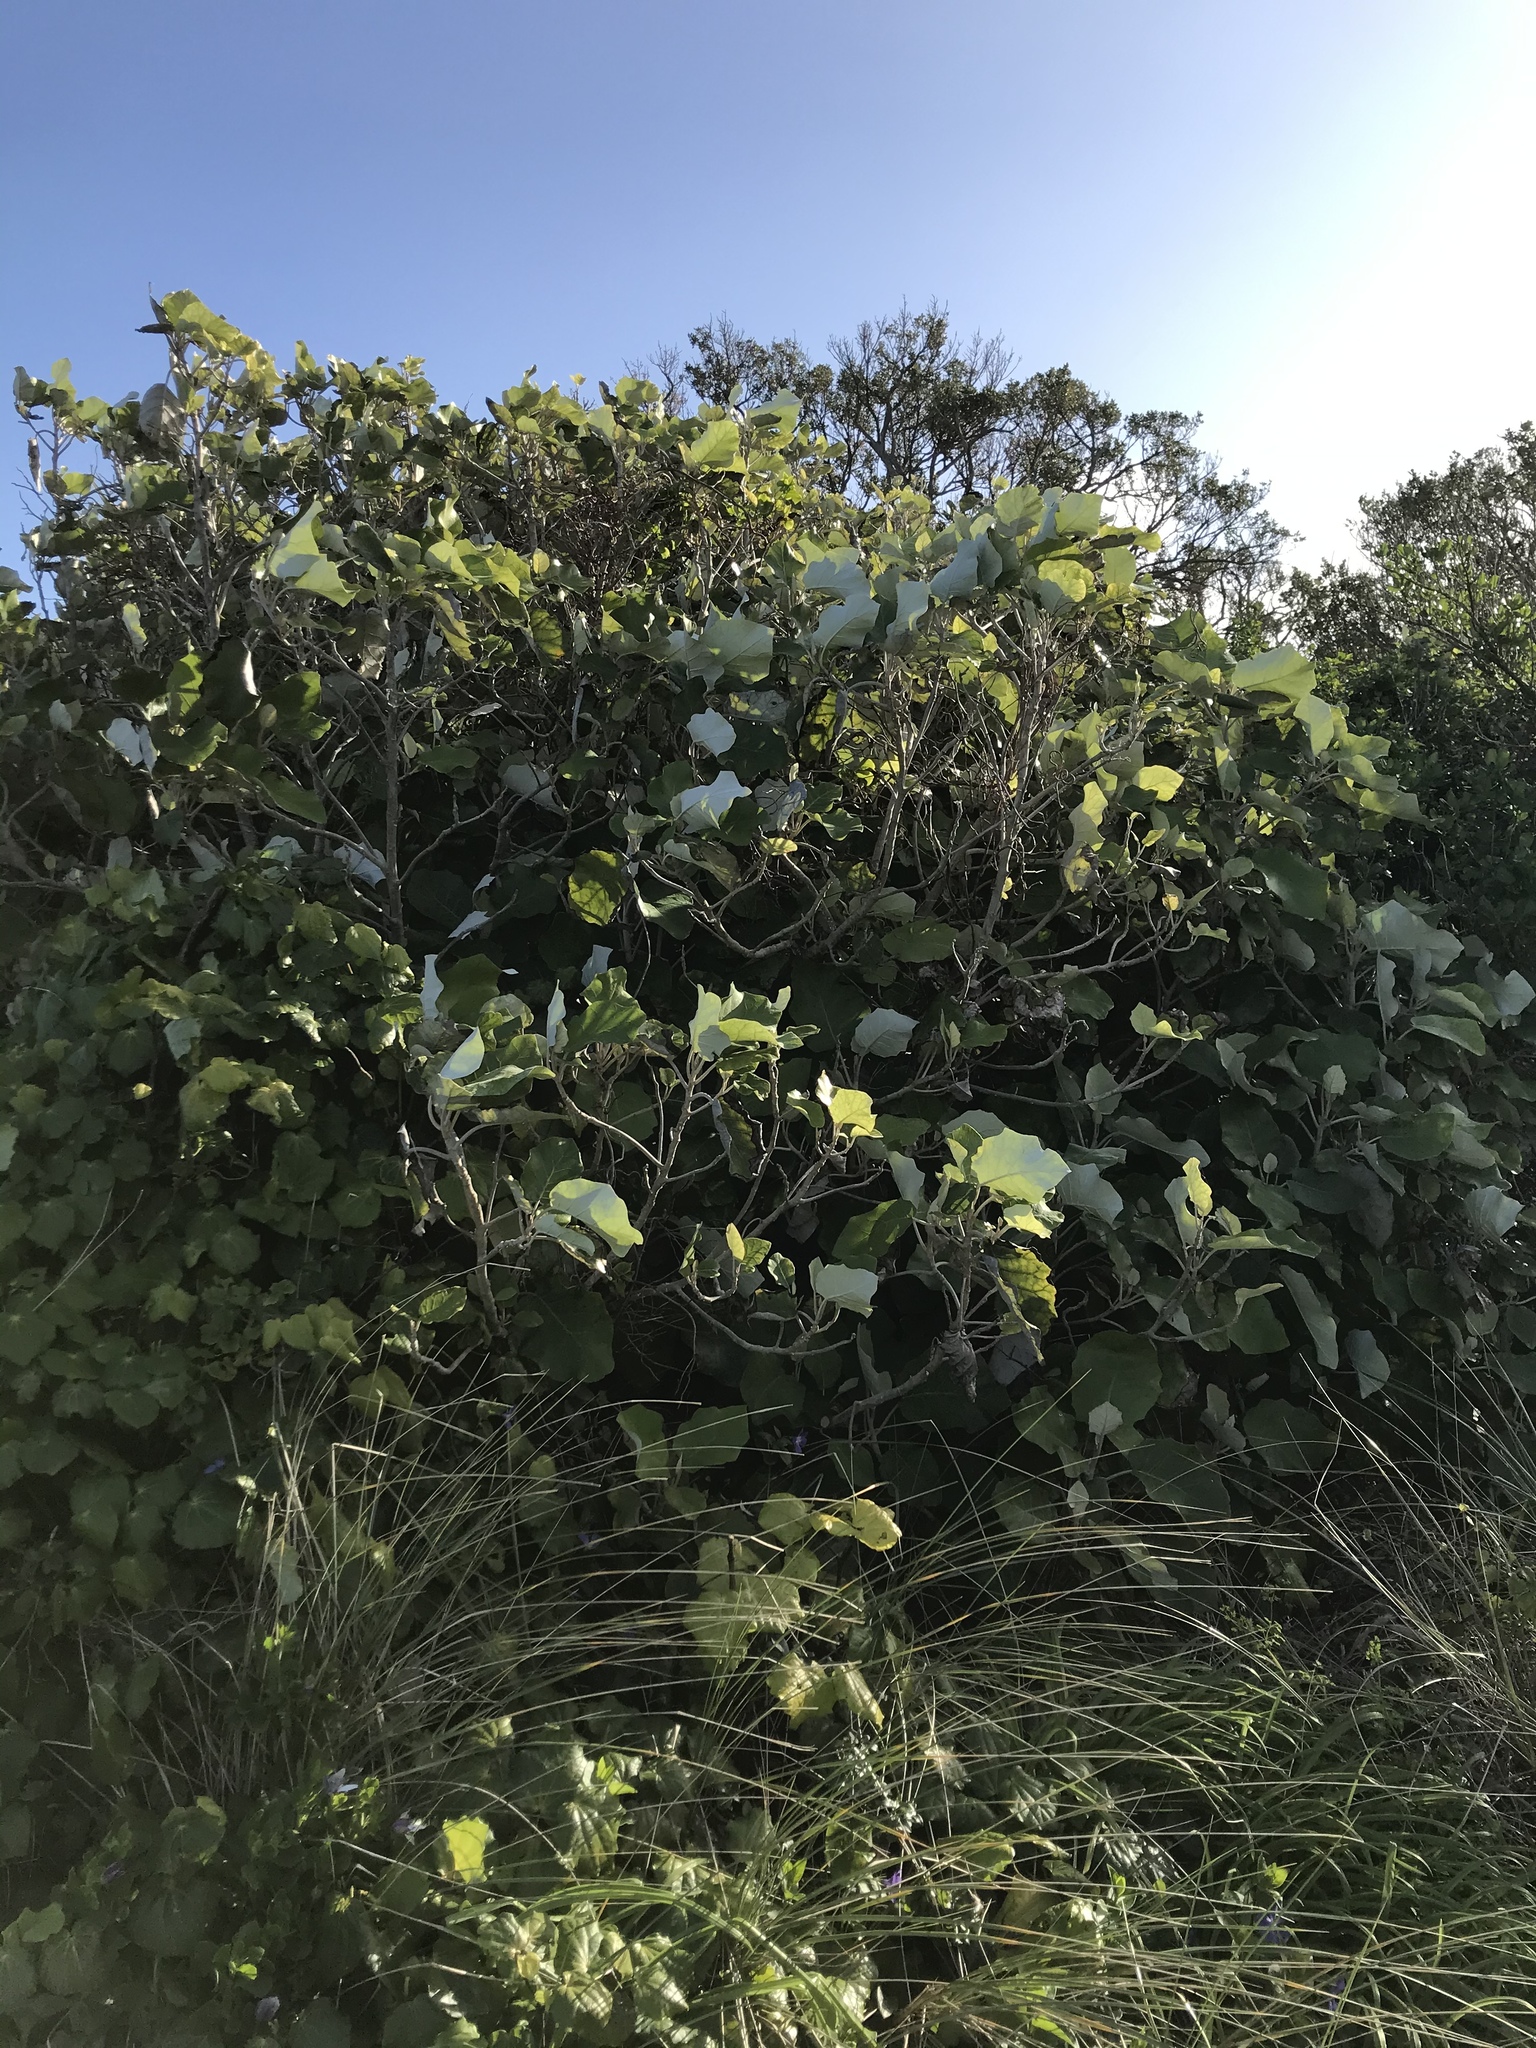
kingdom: Plantae
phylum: Tracheophyta
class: Magnoliopsida
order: Asterales
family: Asteraceae
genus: Brachyglottis
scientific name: Brachyglottis repanda
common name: Hedge ragwort
